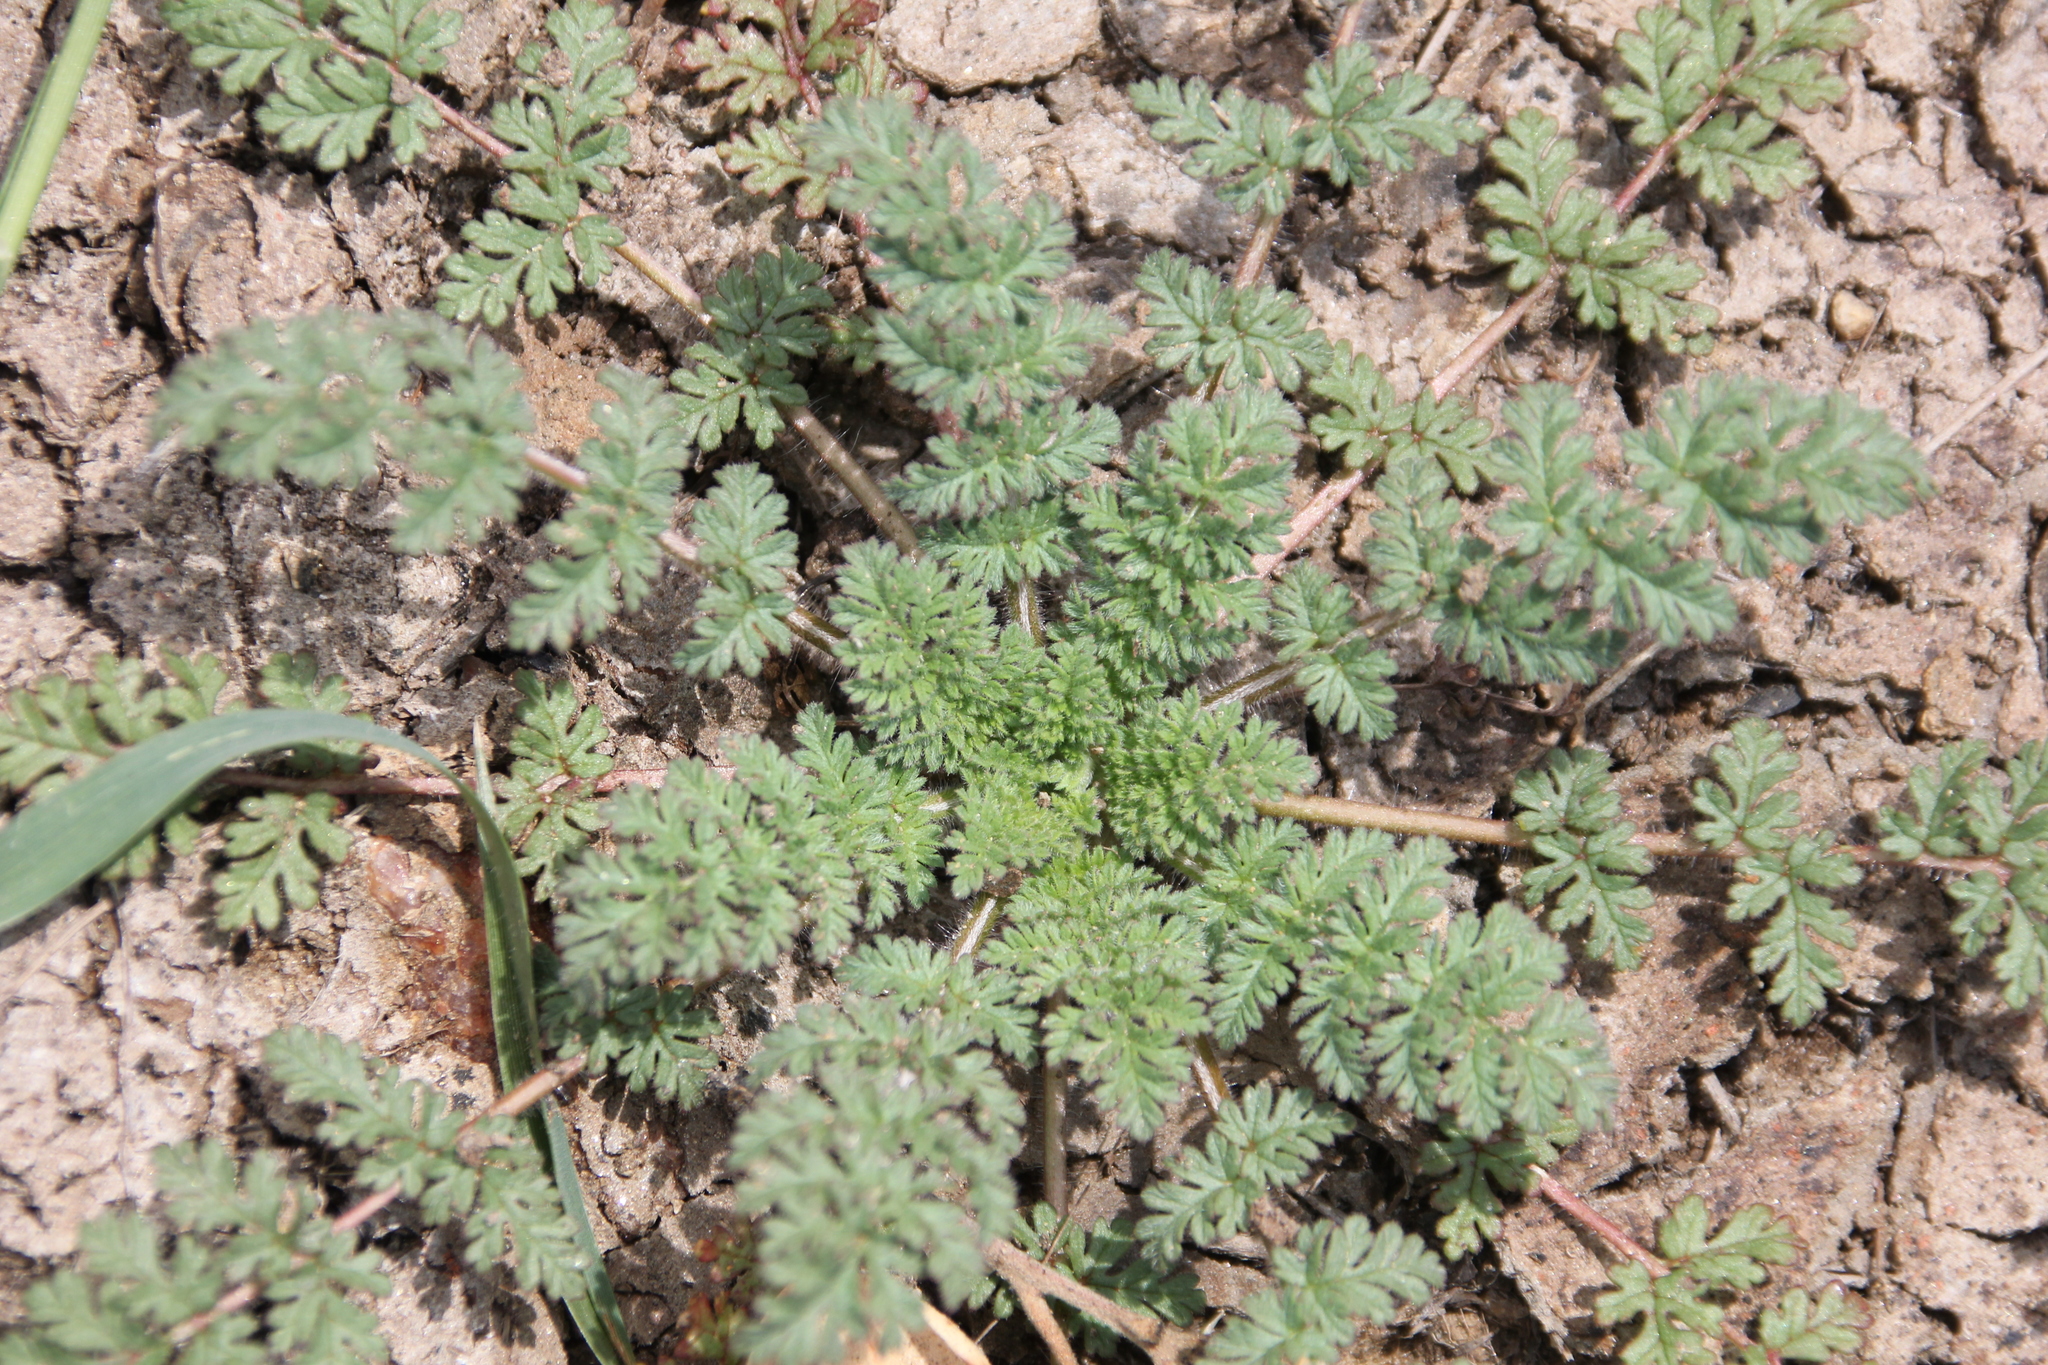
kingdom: Plantae
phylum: Tracheophyta
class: Magnoliopsida
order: Geraniales
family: Geraniaceae
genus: Erodium
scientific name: Erodium cicutarium
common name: Common stork's-bill
